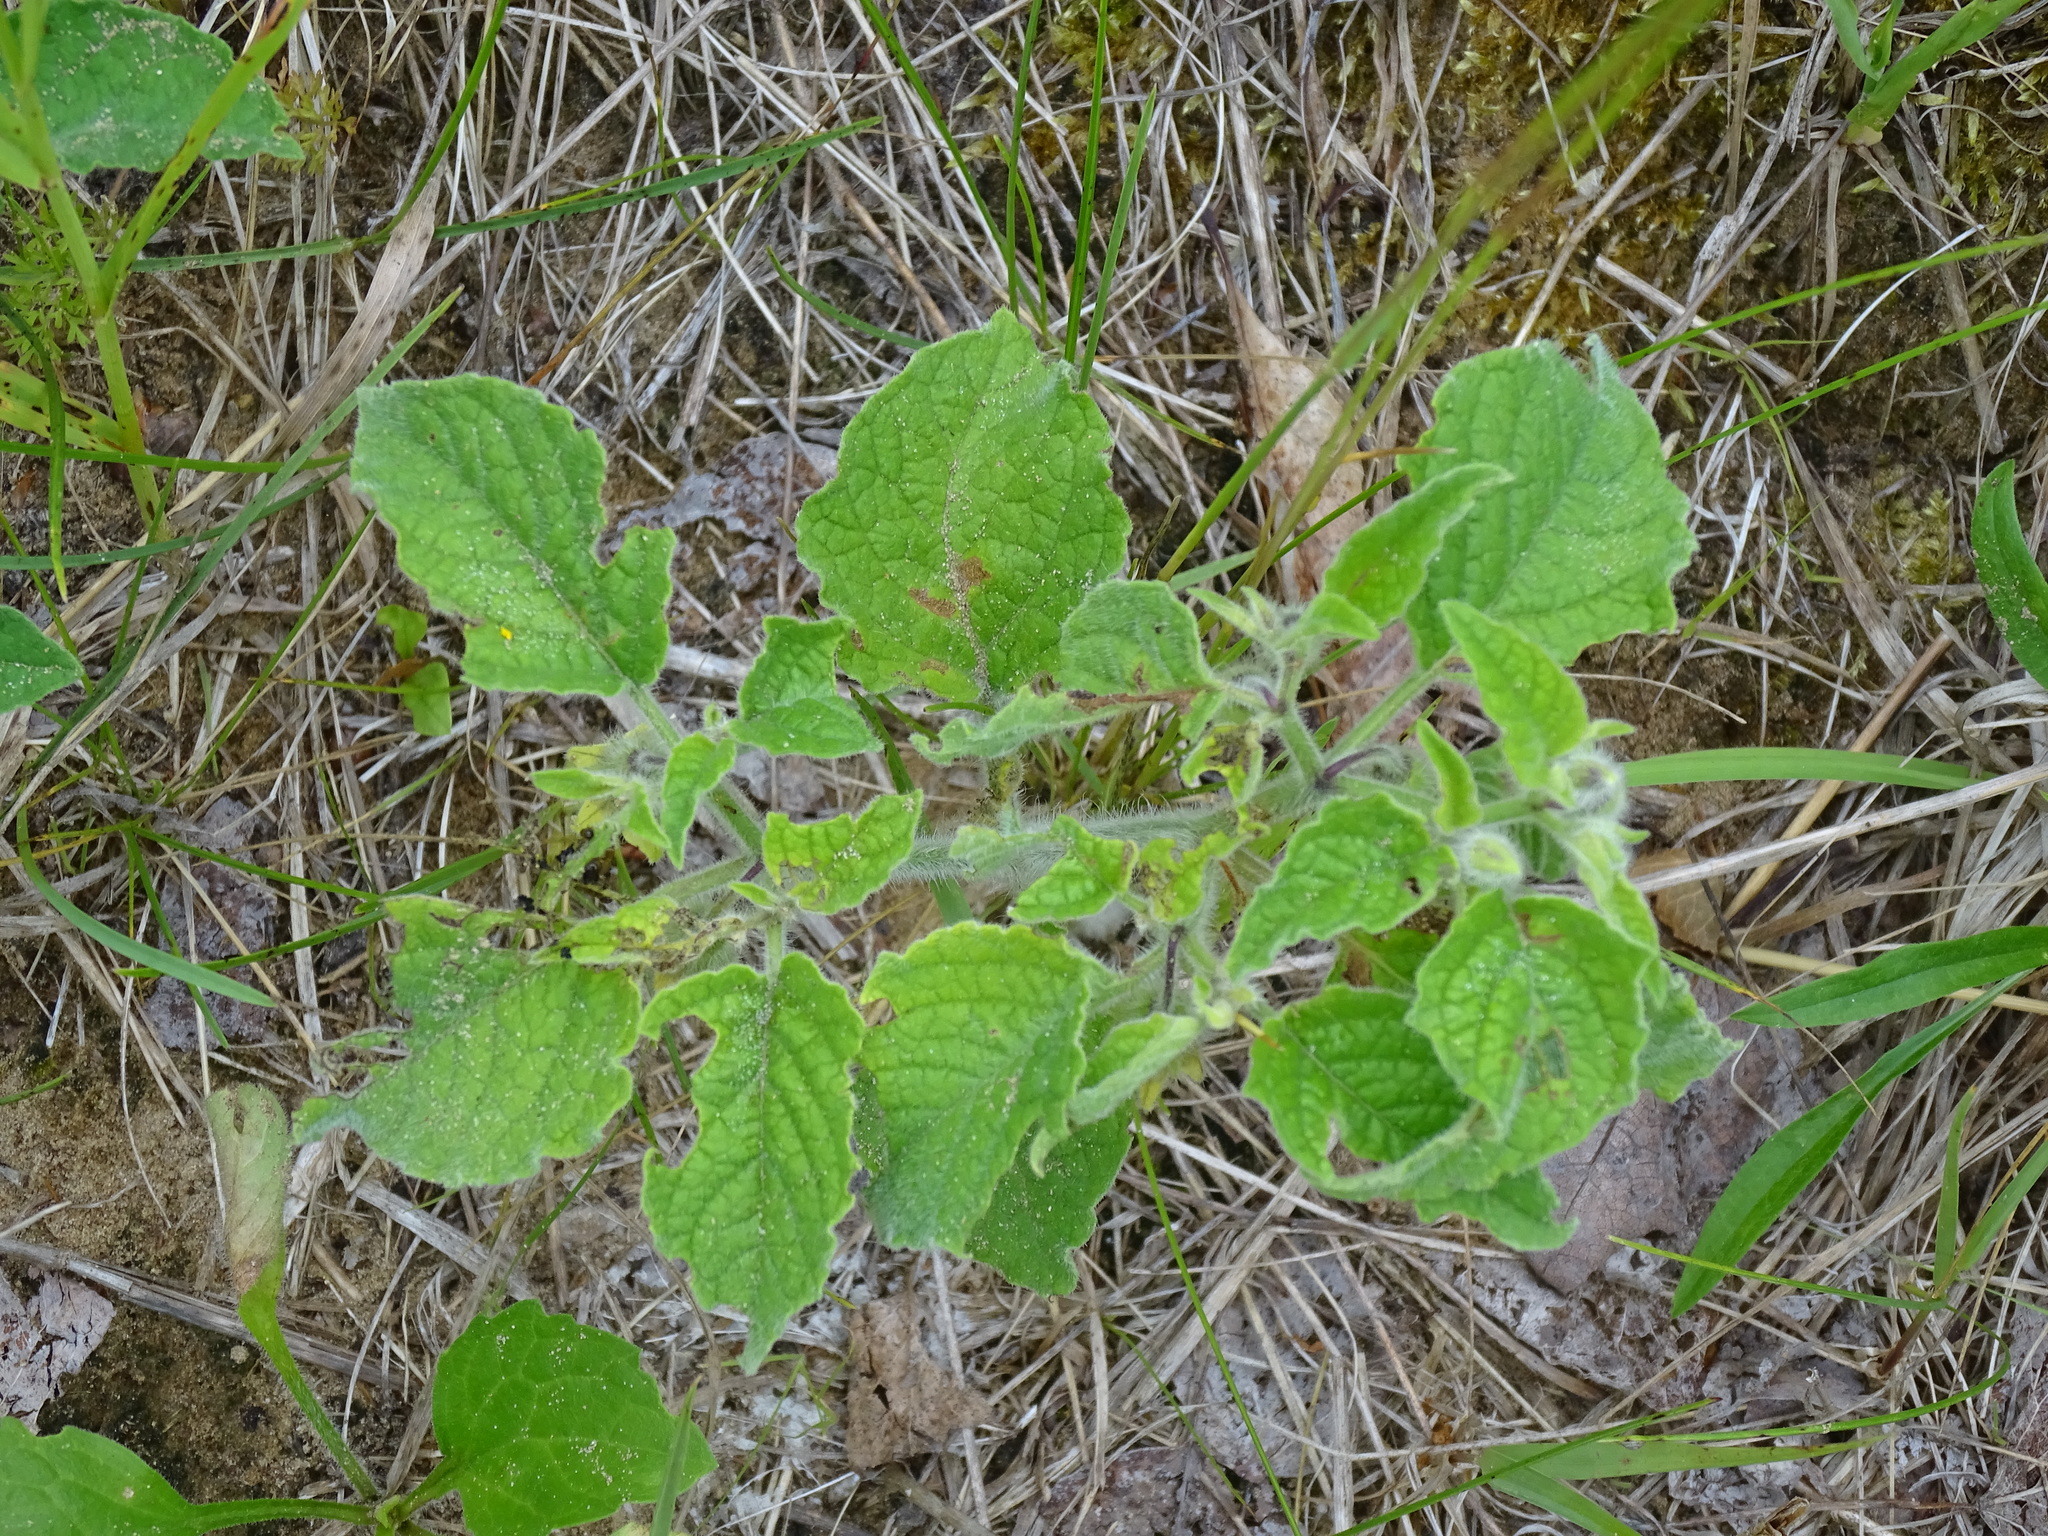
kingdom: Plantae
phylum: Tracheophyta
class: Magnoliopsida
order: Solanales
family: Solanaceae
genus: Physalis
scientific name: Physalis heterophylla
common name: Clammy ground-cherry
